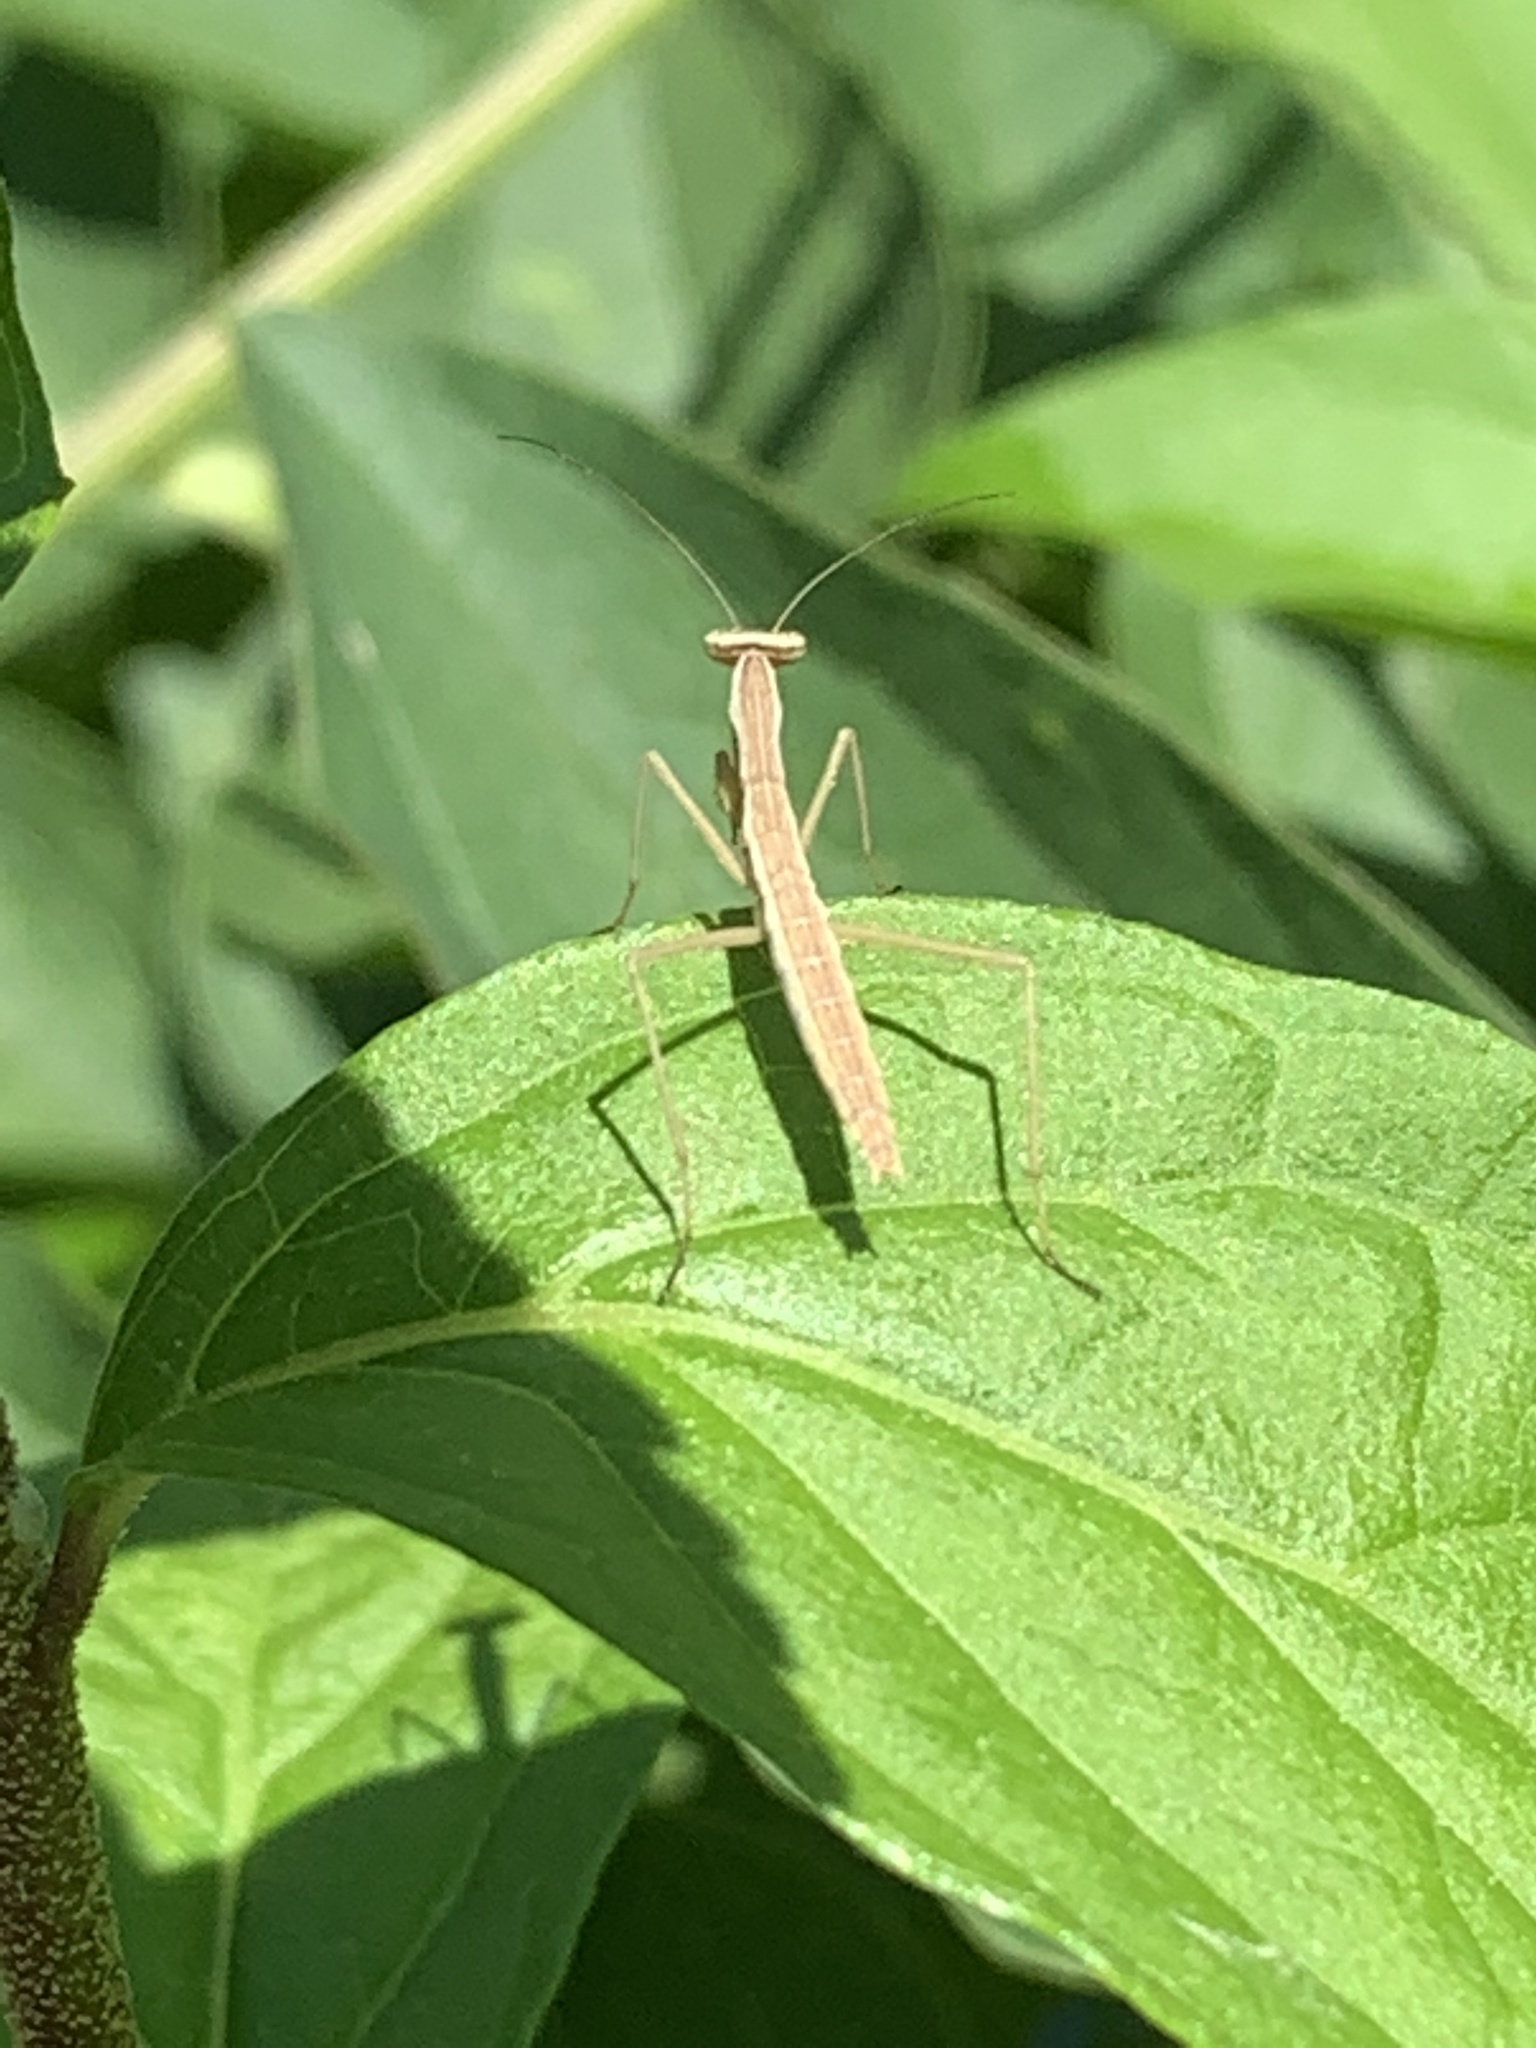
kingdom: Animalia
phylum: Arthropoda
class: Insecta
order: Mantodea
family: Mantidae
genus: Tenodera
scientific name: Tenodera sinensis
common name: Chinese mantis
